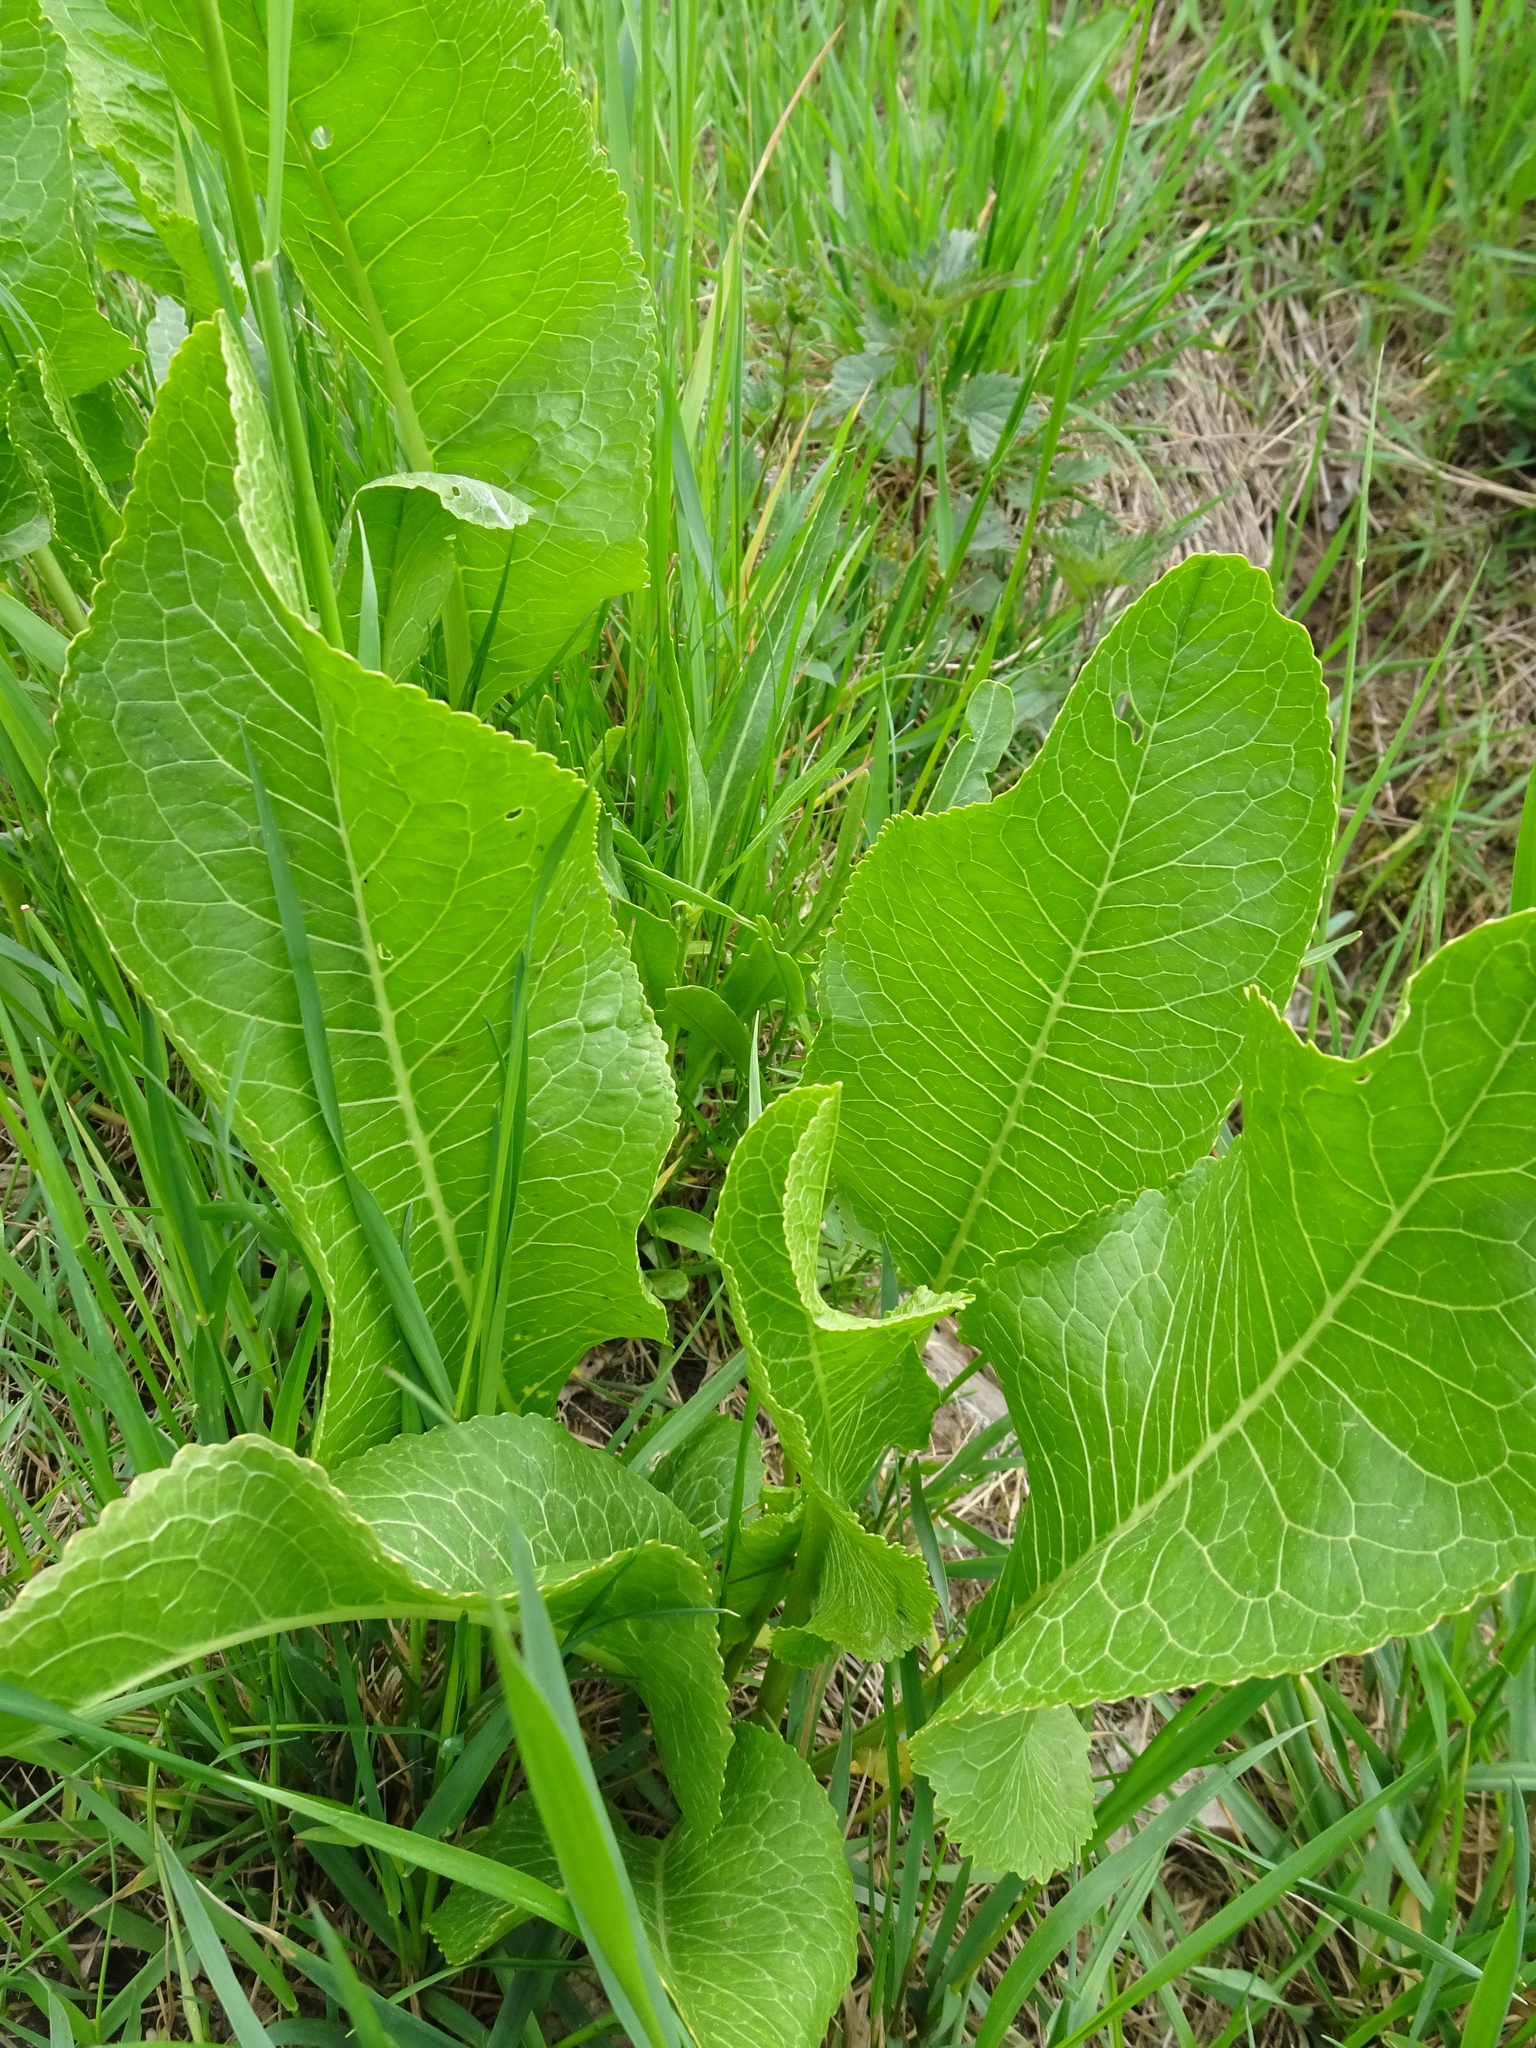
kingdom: Plantae
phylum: Tracheophyta
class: Magnoliopsida
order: Brassicales
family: Brassicaceae
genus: Armoracia
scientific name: Armoracia rusticana
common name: Horseradish
